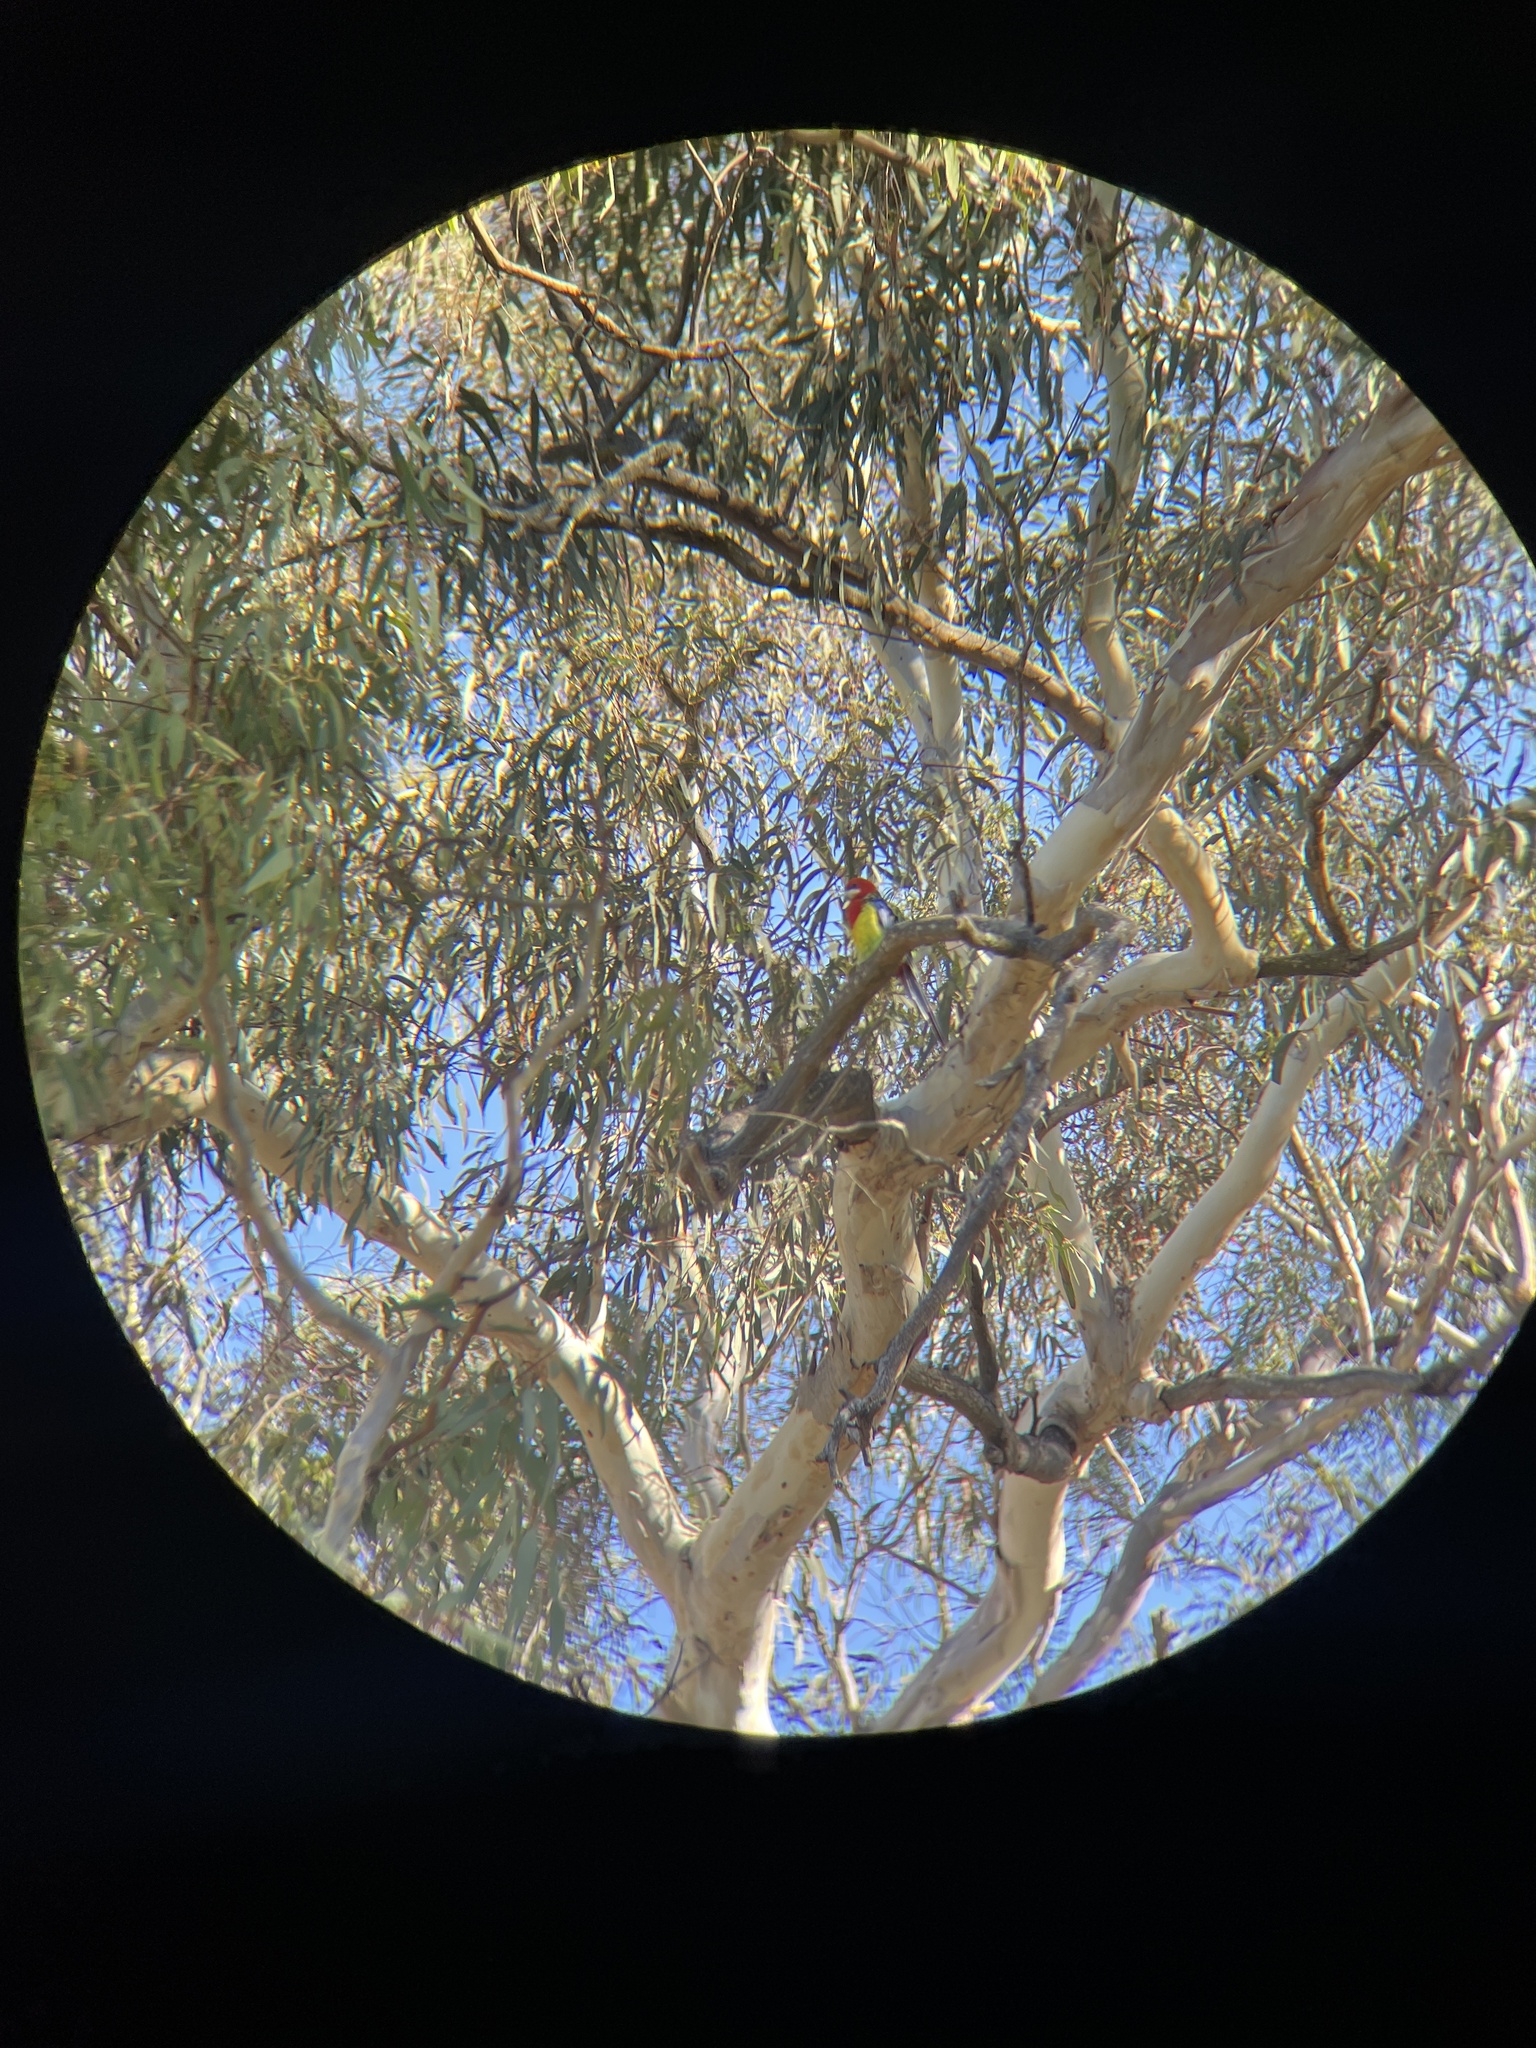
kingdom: Animalia
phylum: Chordata
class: Aves
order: Psittaciformes
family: Psittacidae
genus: Platycercus
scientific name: Platycercus eximius
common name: Eastern rosella
